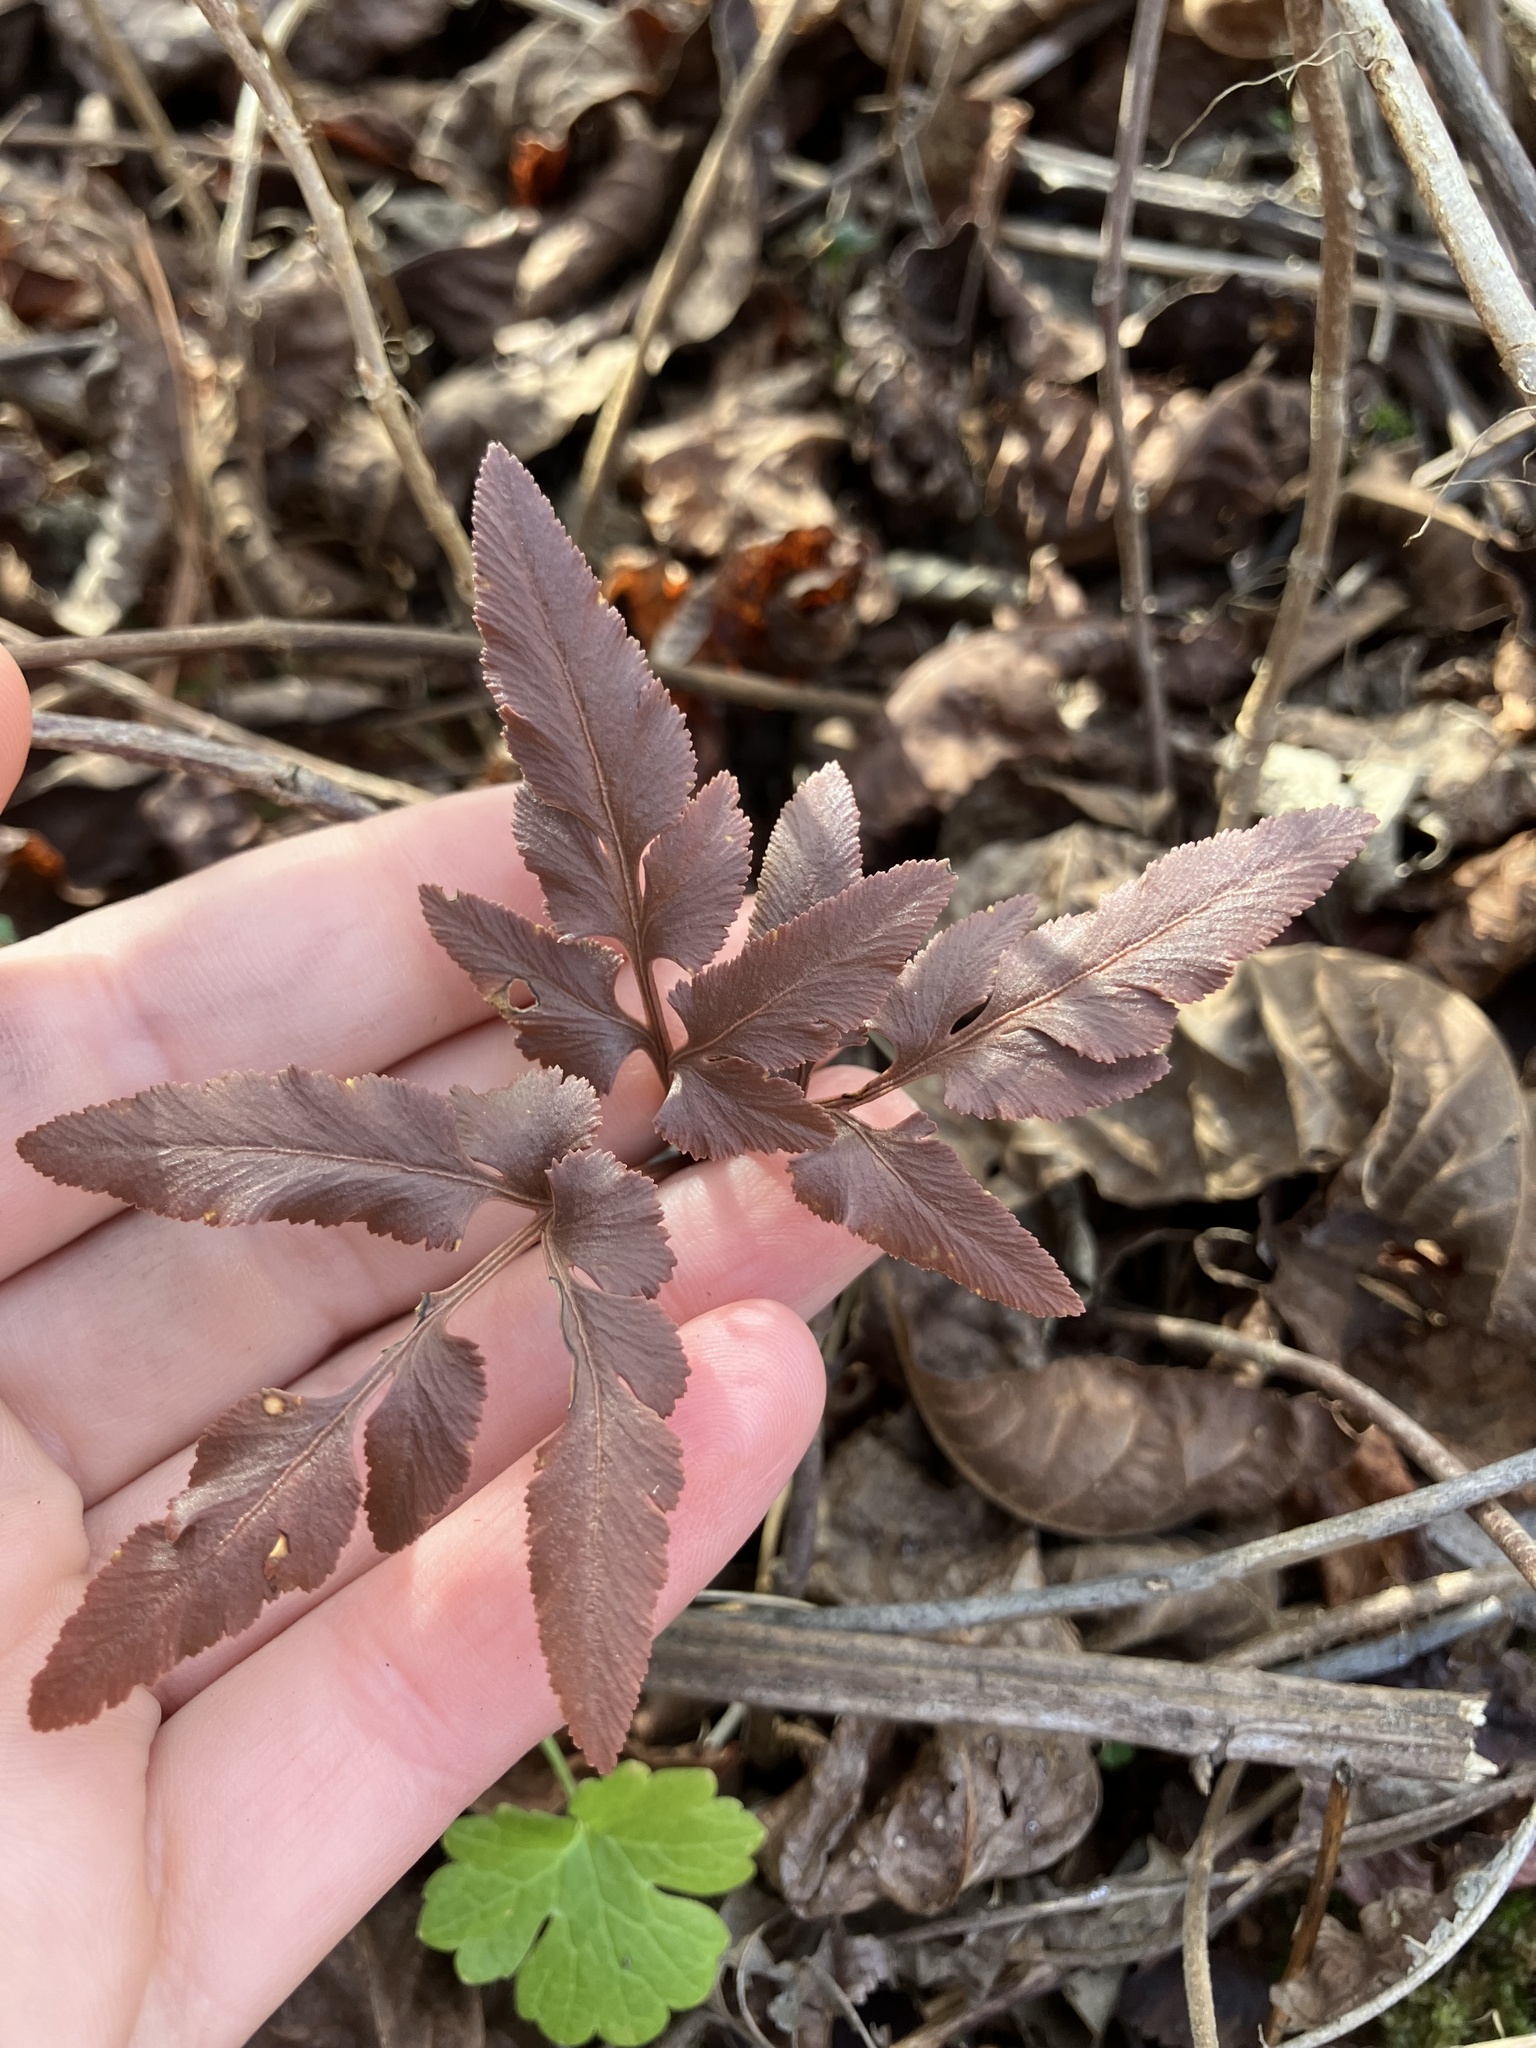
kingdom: Plantae
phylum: Tracheophyta
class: Polypodiopsida
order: Ophioglossales
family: Ophioglossaceae
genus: Sceptridium
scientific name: Sceptridium dissectum
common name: Cut-leaved grapefern
